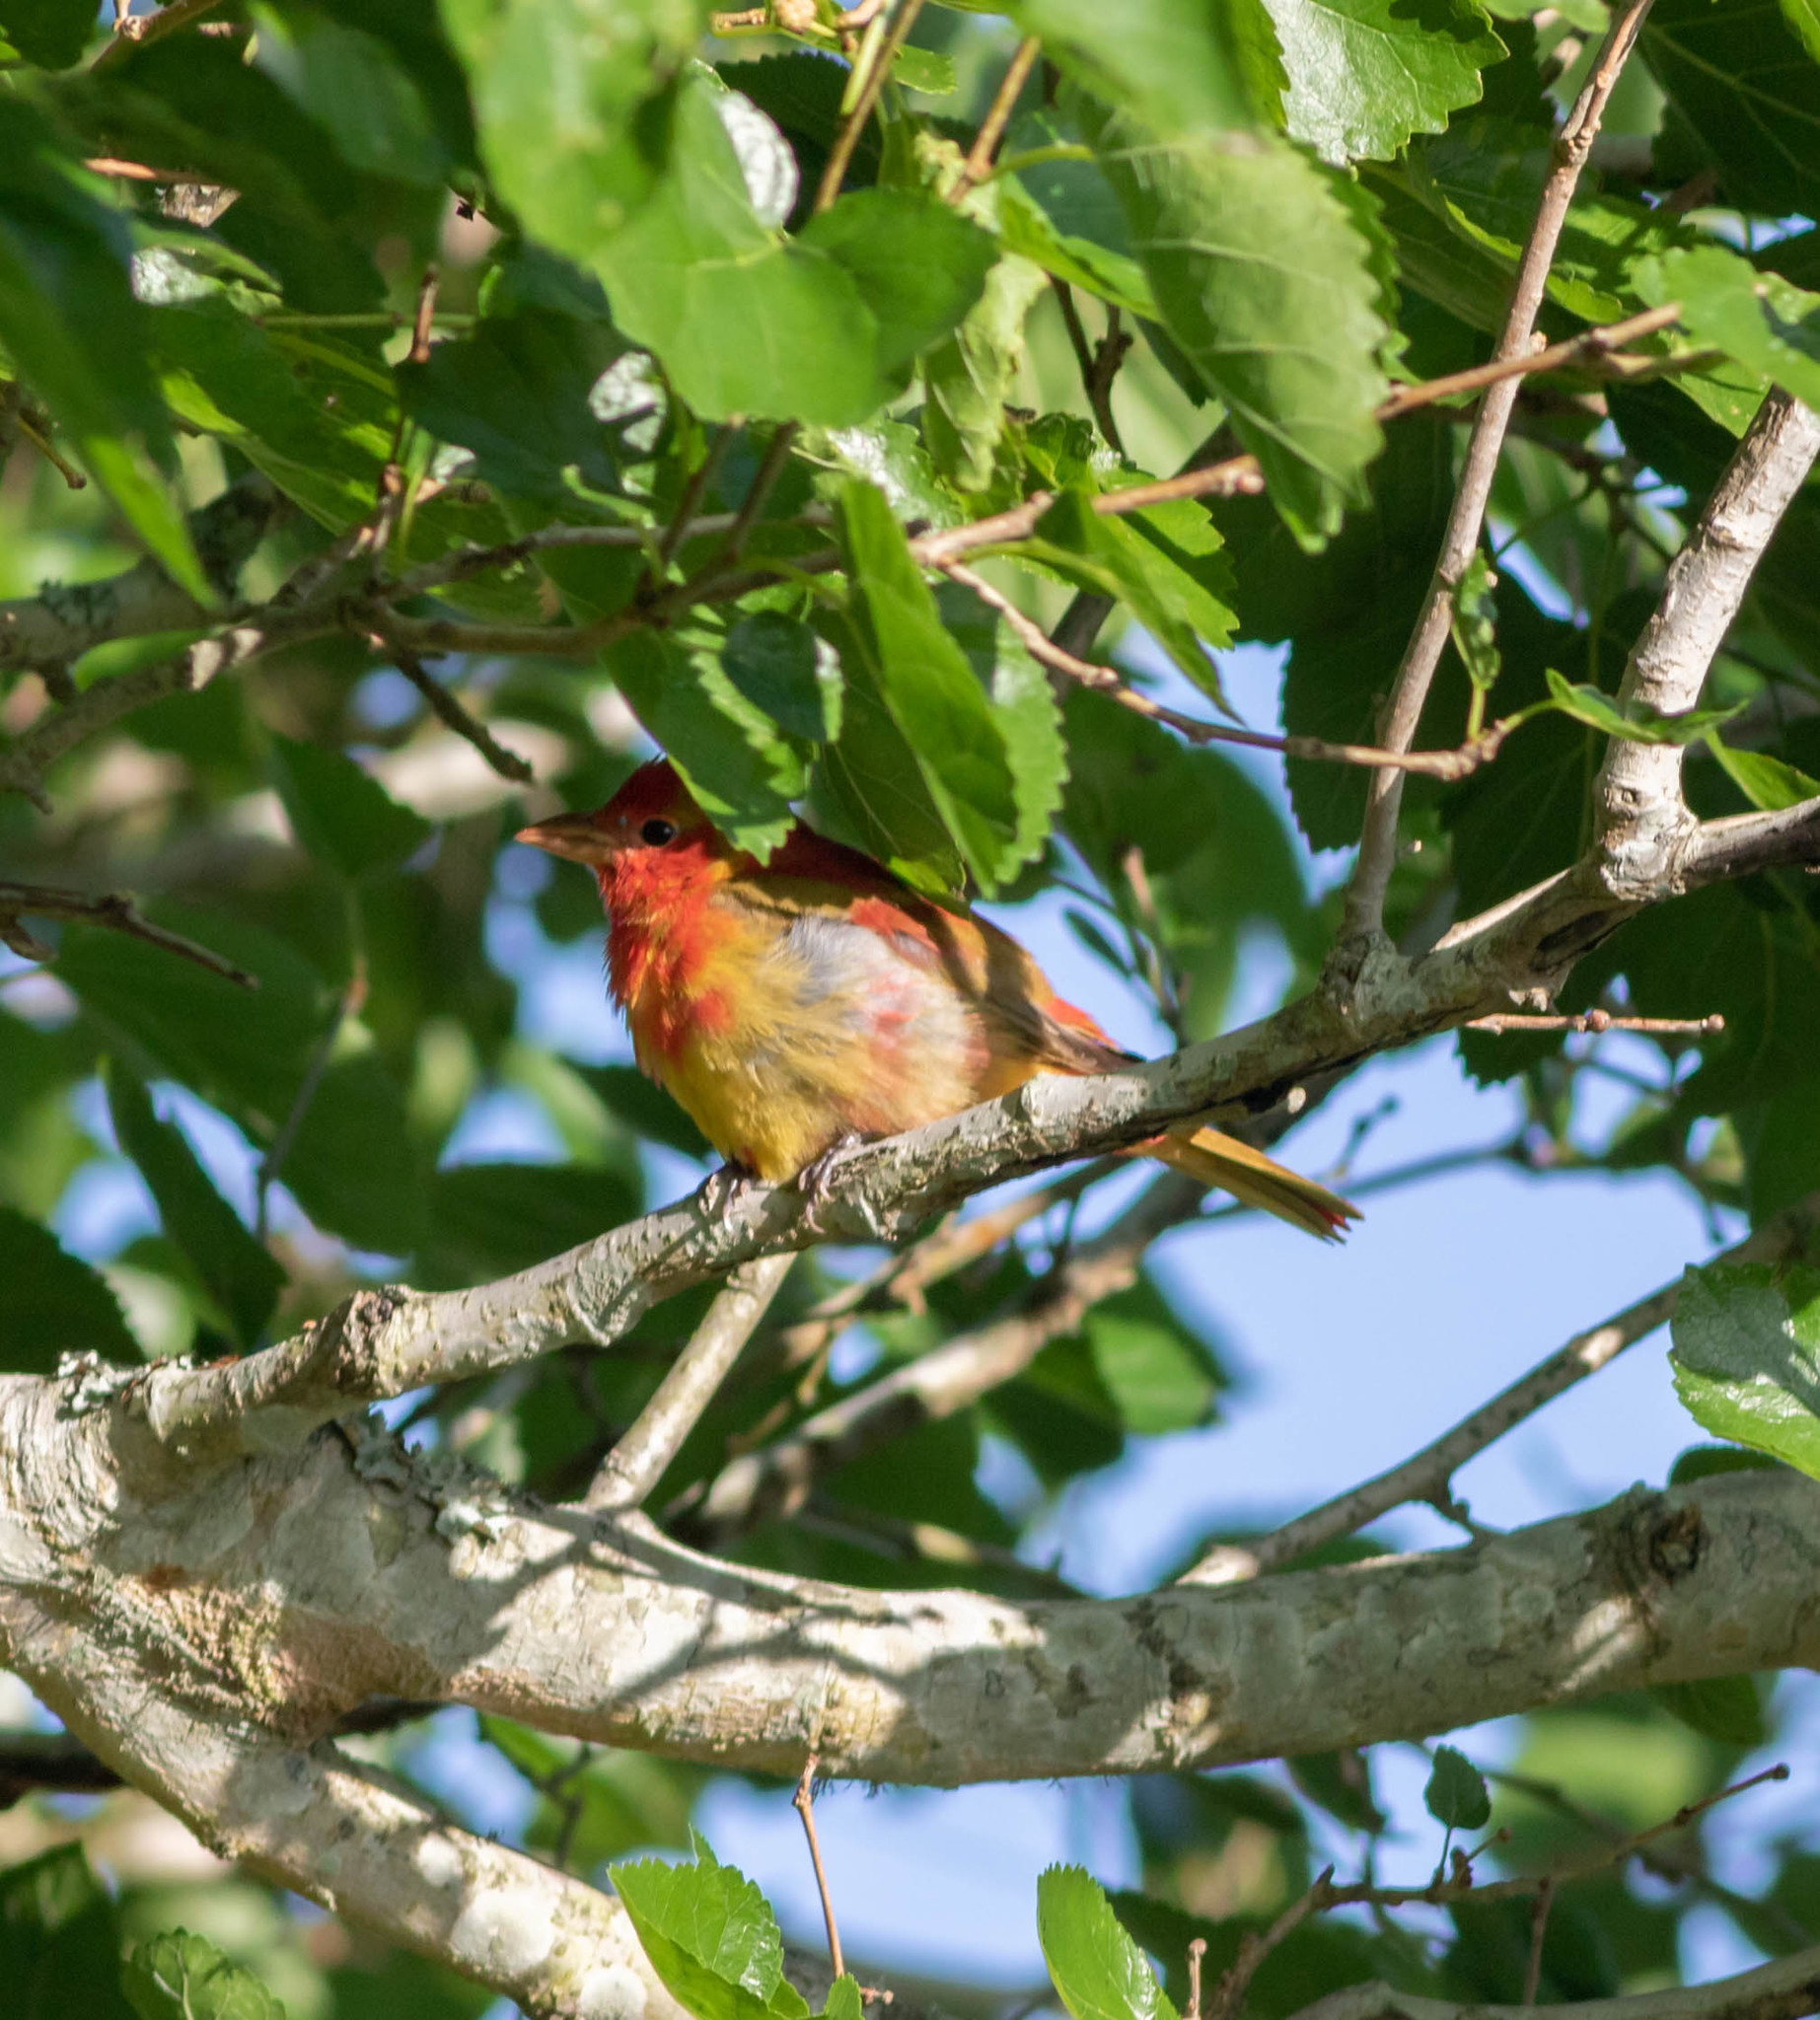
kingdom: Animalia
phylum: Chordata
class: Aves
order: Passeriformes
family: Cardinalidae
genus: Piranga
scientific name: Piranga rubra
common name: Summer tanager
